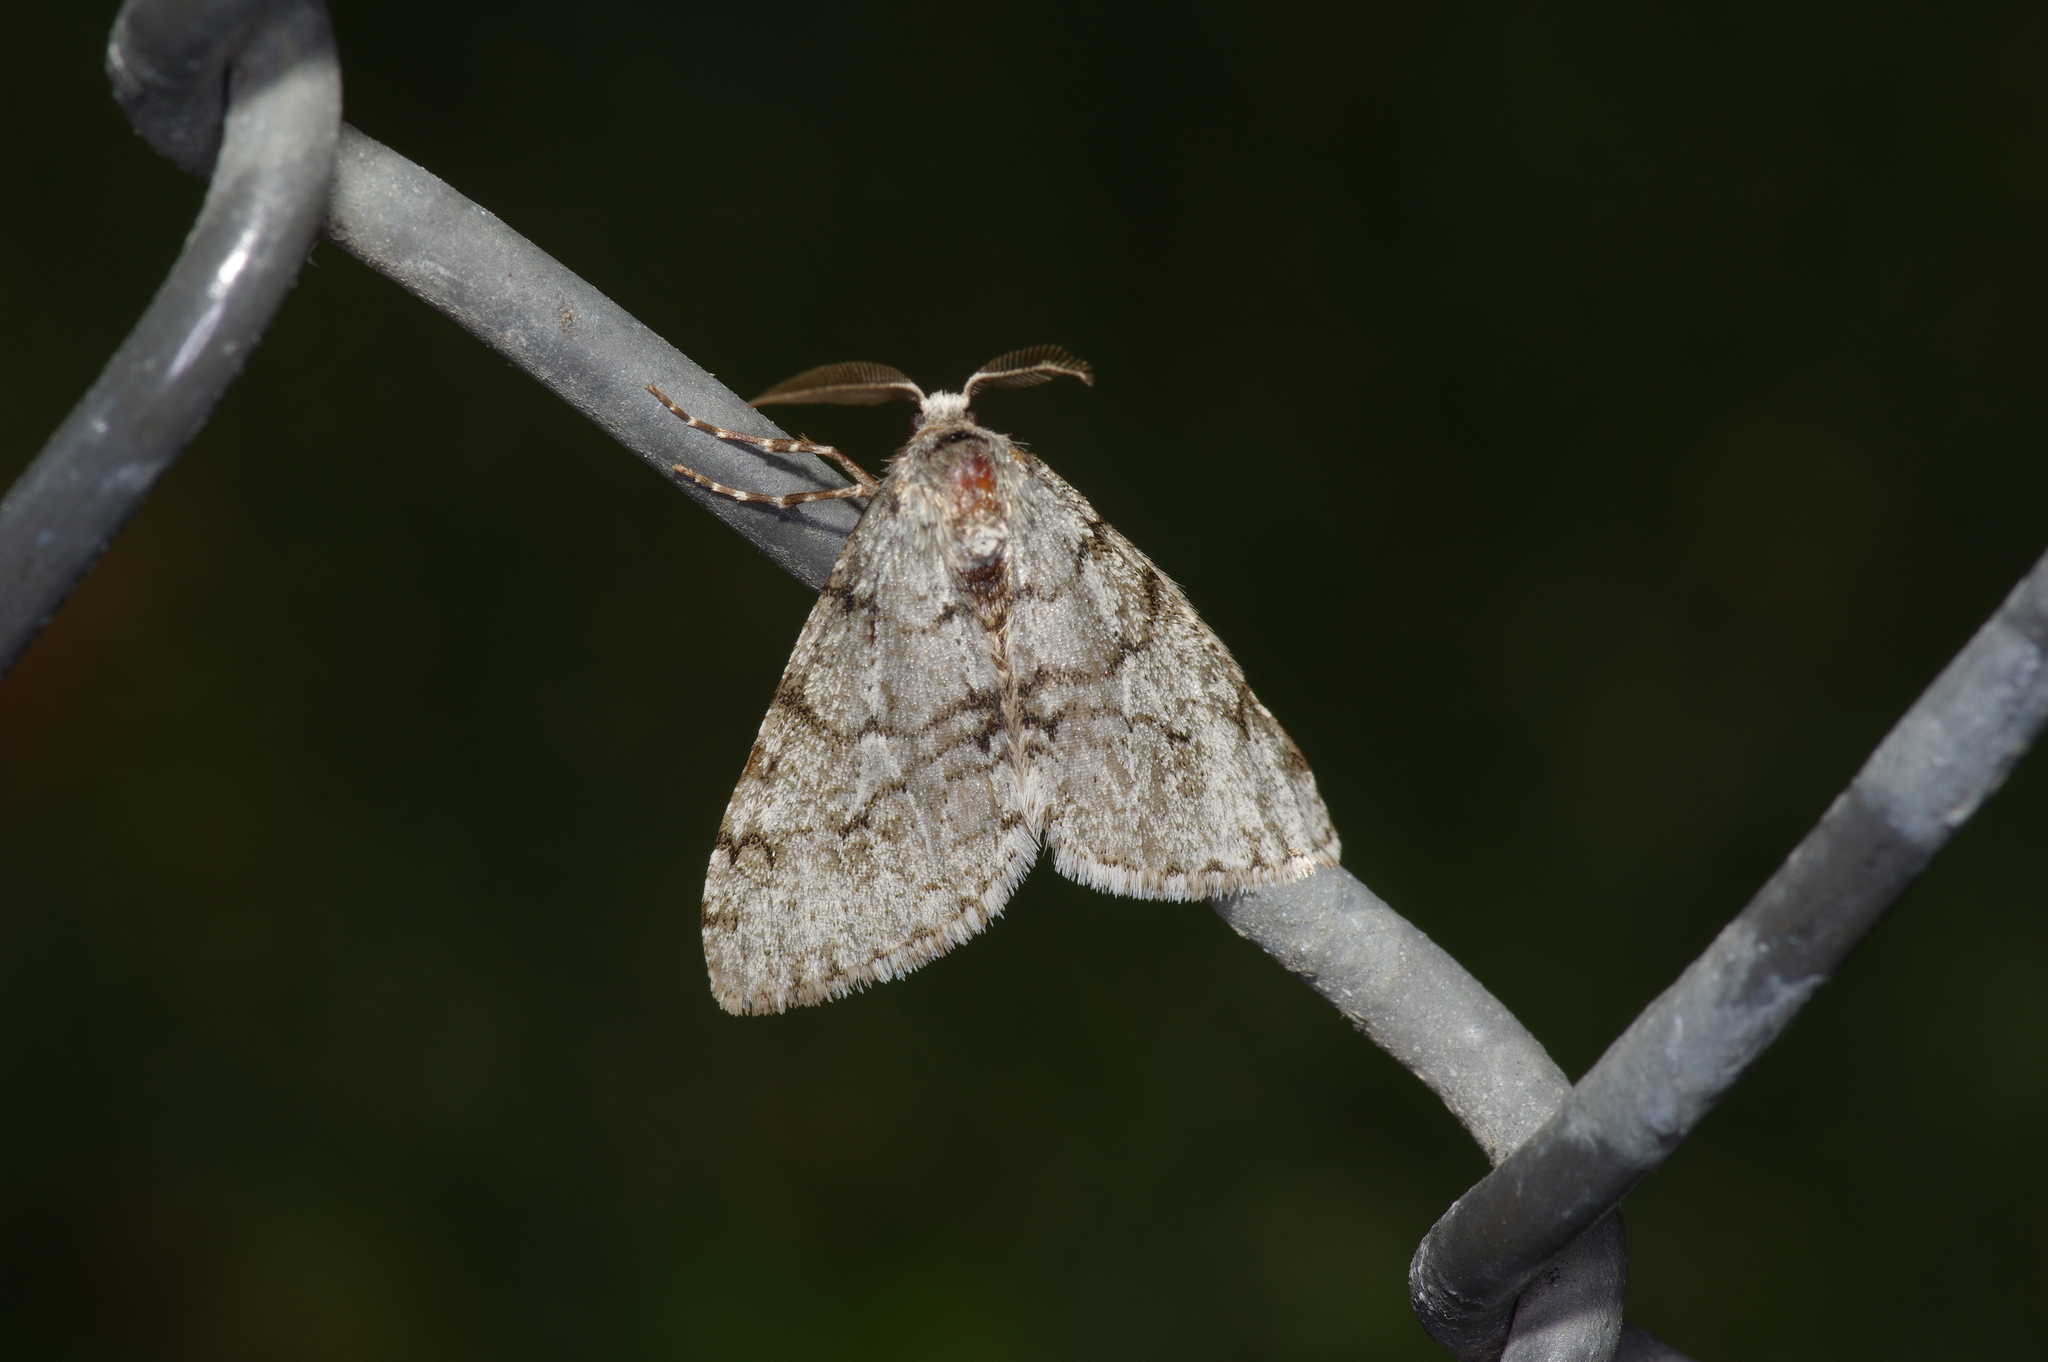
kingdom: Animalia
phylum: Arthropoda
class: Insecta
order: Lepidoptera
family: Geometridae
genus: Phigalia
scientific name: Phigalia strigataria
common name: Small phigalia
